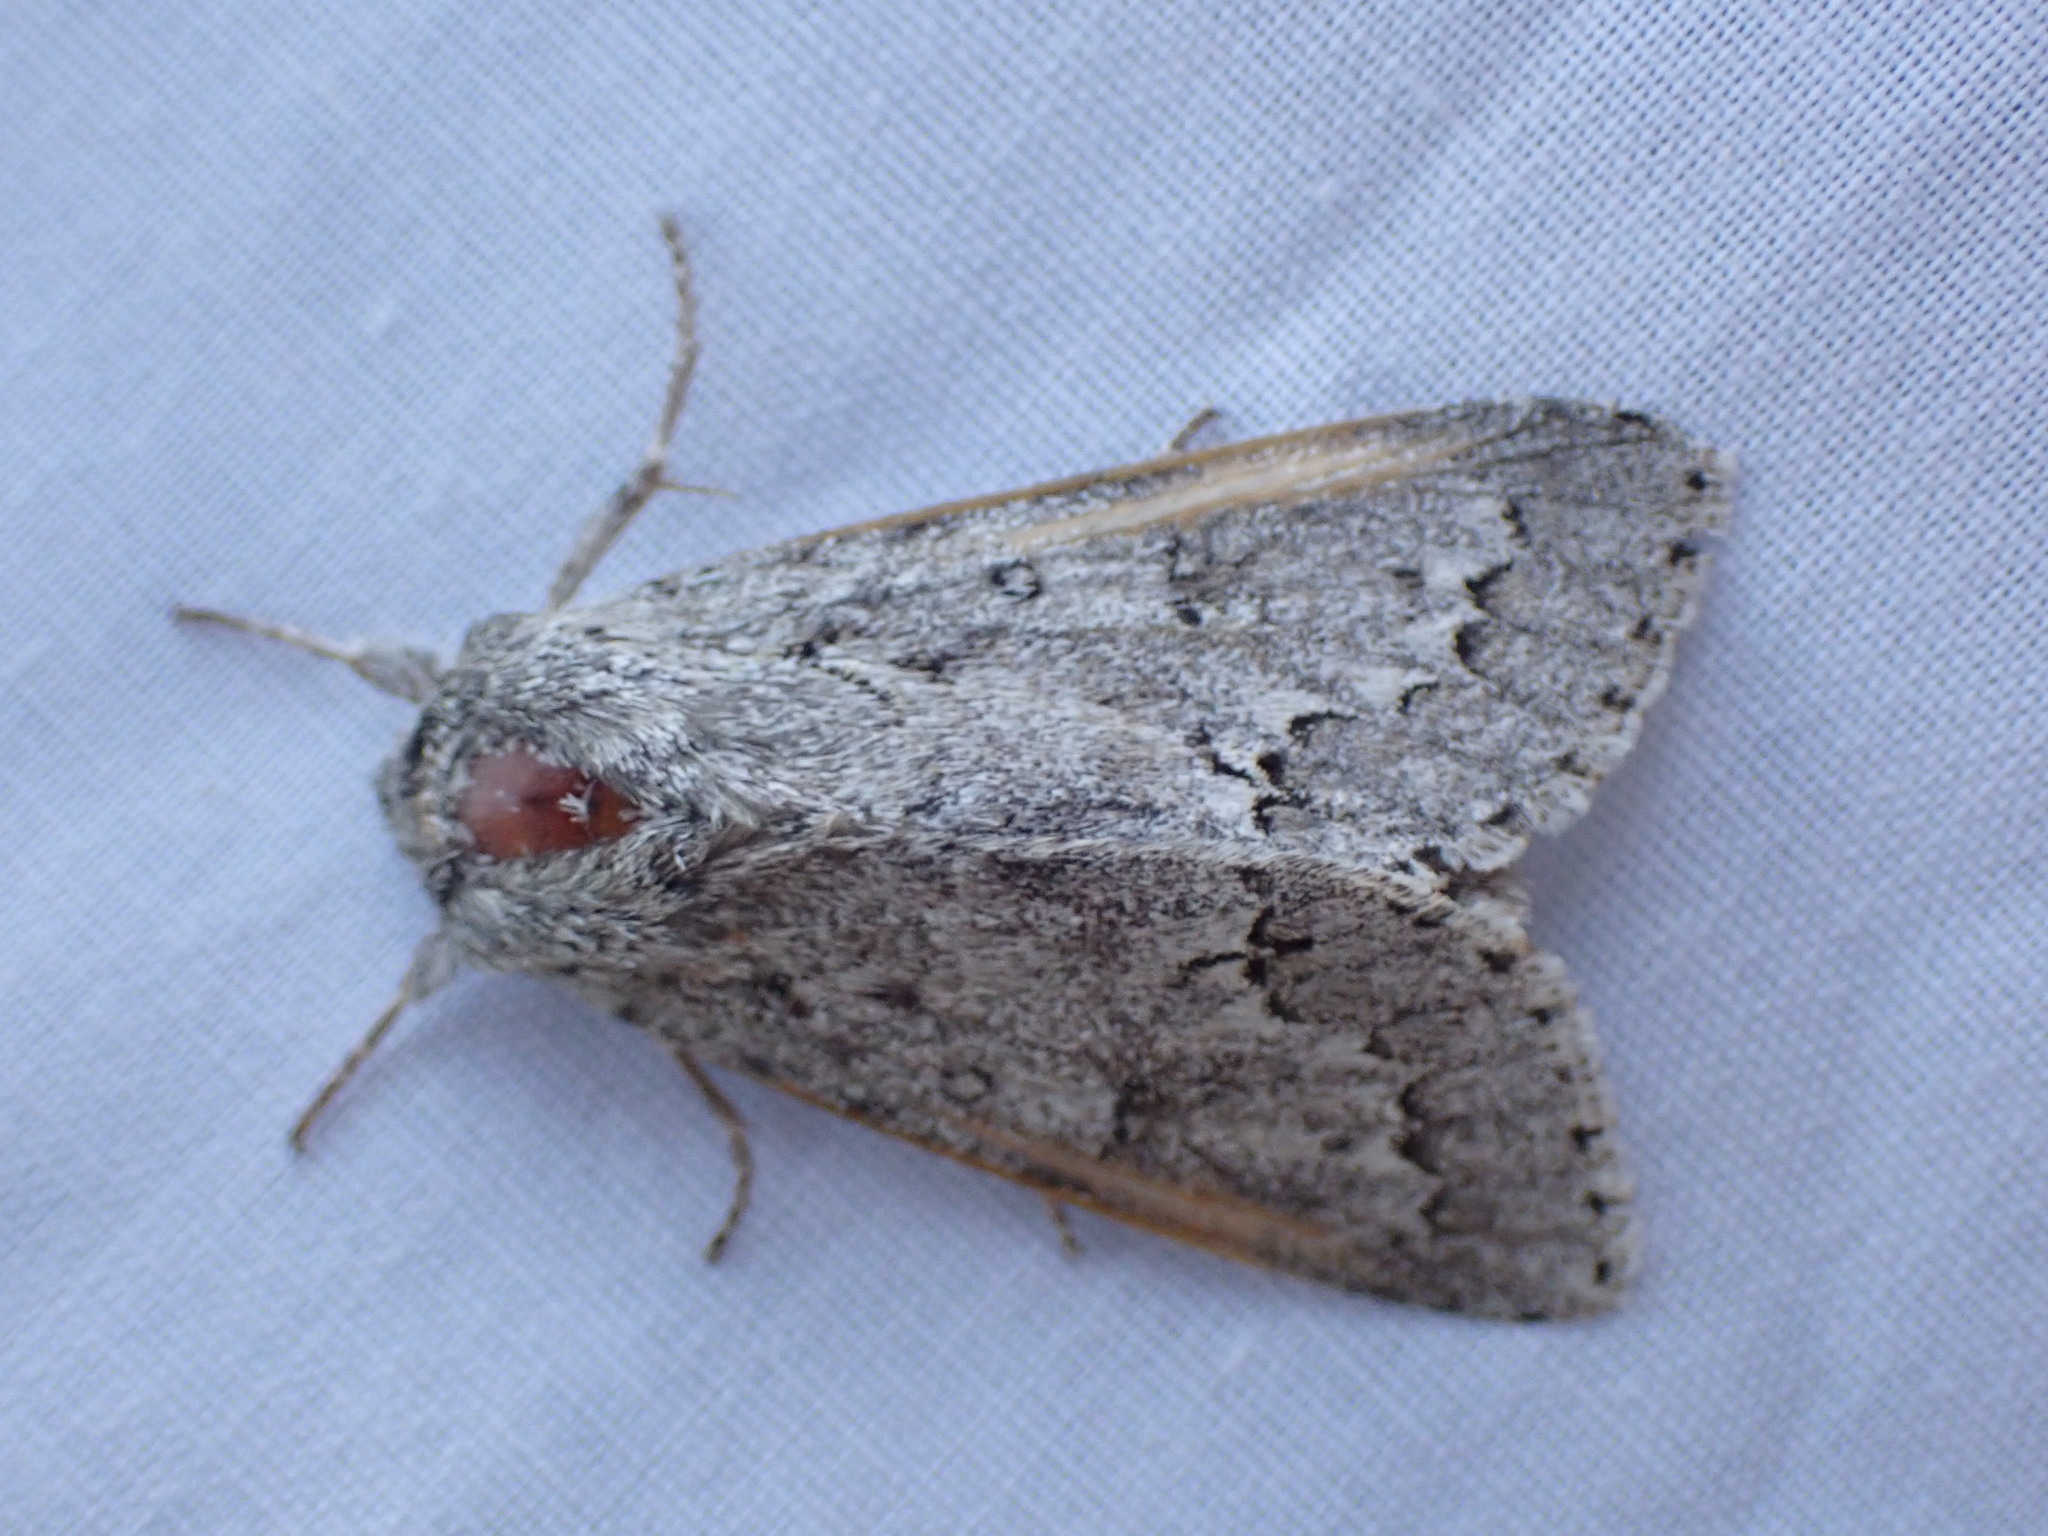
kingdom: Animalia
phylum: Arthropoda
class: Insecta
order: Lepidoptera
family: Noctuidae
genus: Acronicta
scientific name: Acronicta insita
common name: Large gray dagger
